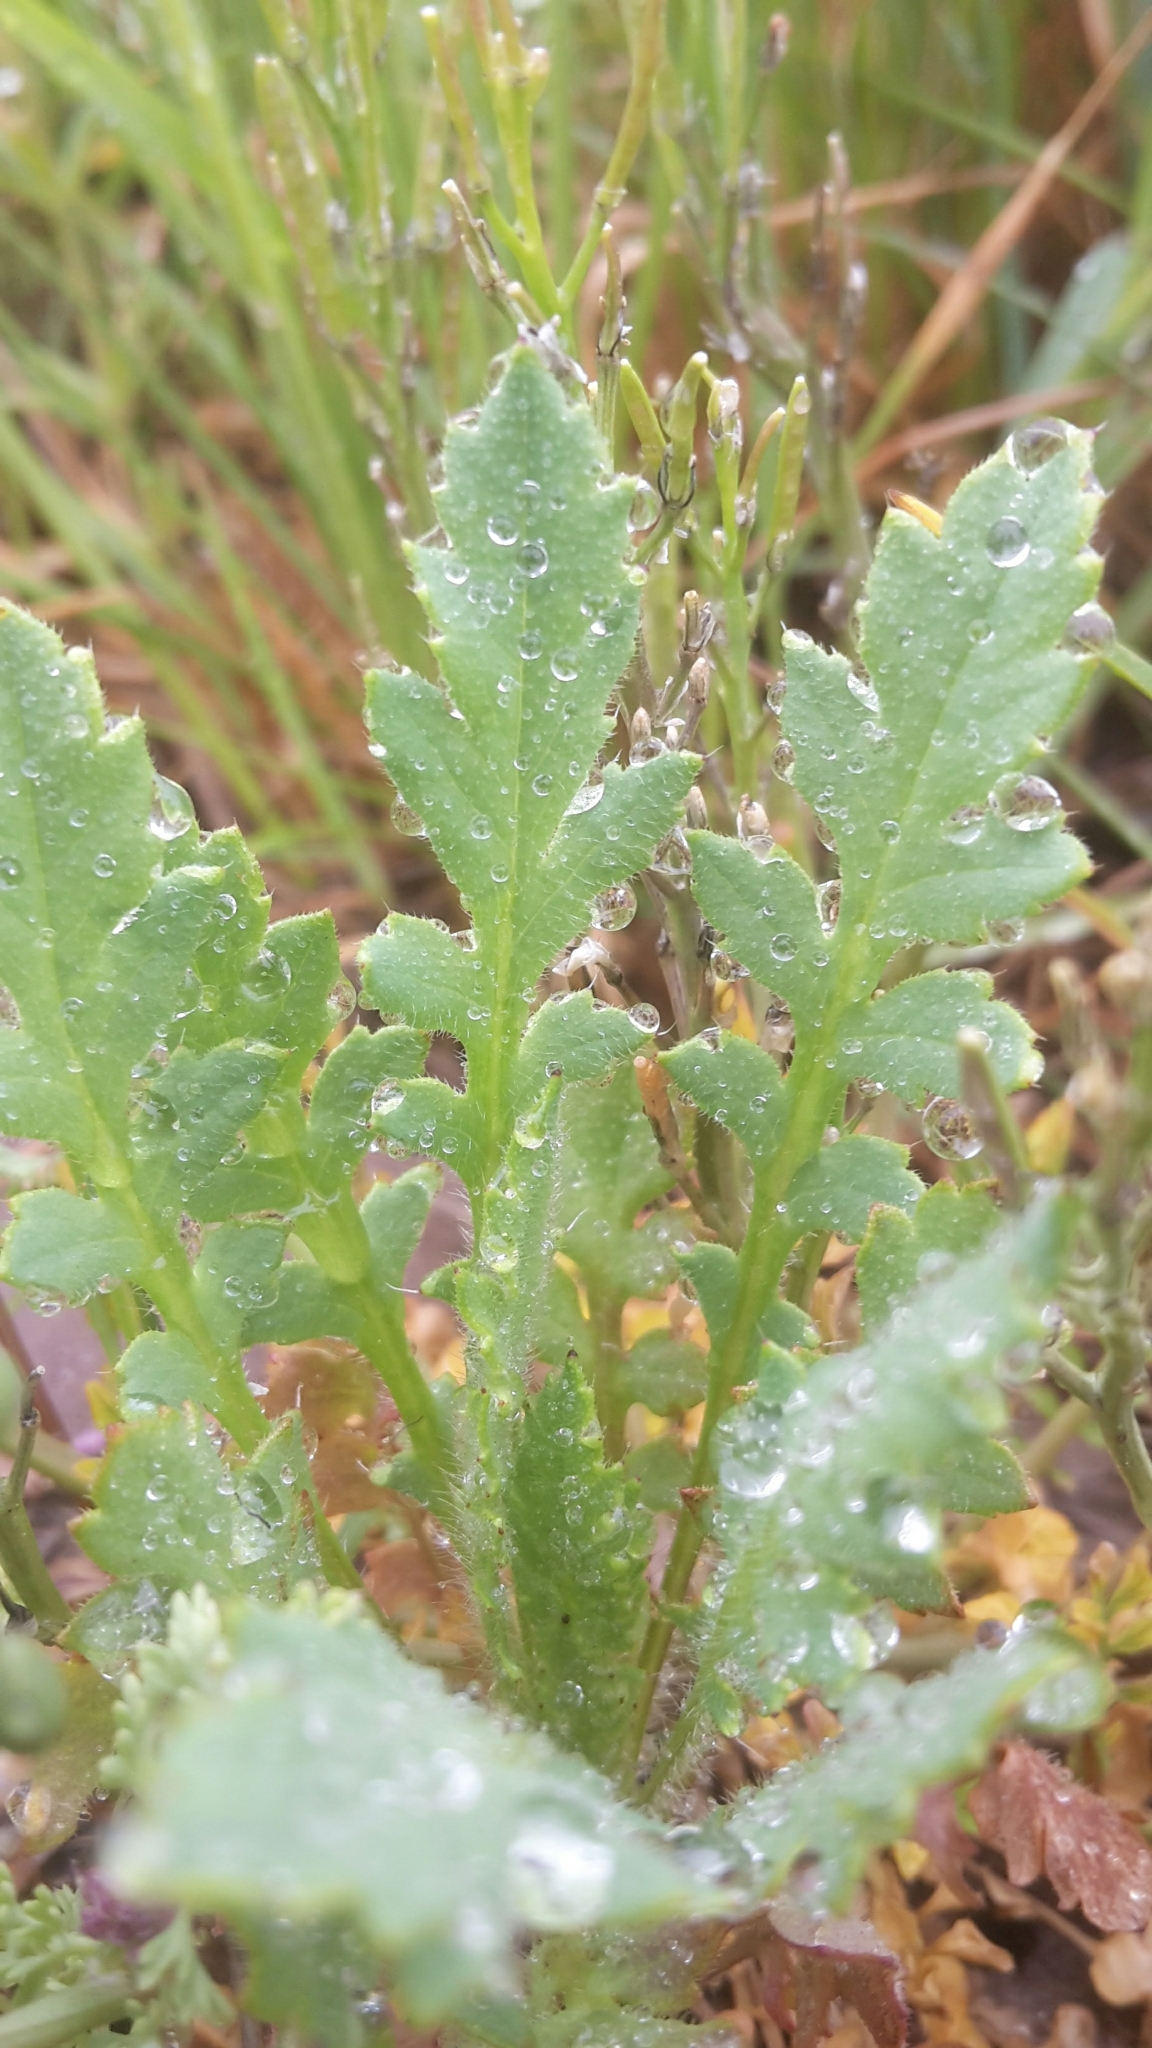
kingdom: Plantae
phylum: Tracheophyta
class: Magnoliopsida
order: Ranunculales
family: Papaveraceae
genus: Fumaria
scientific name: Fumaria officinalis
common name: Common fumitory
